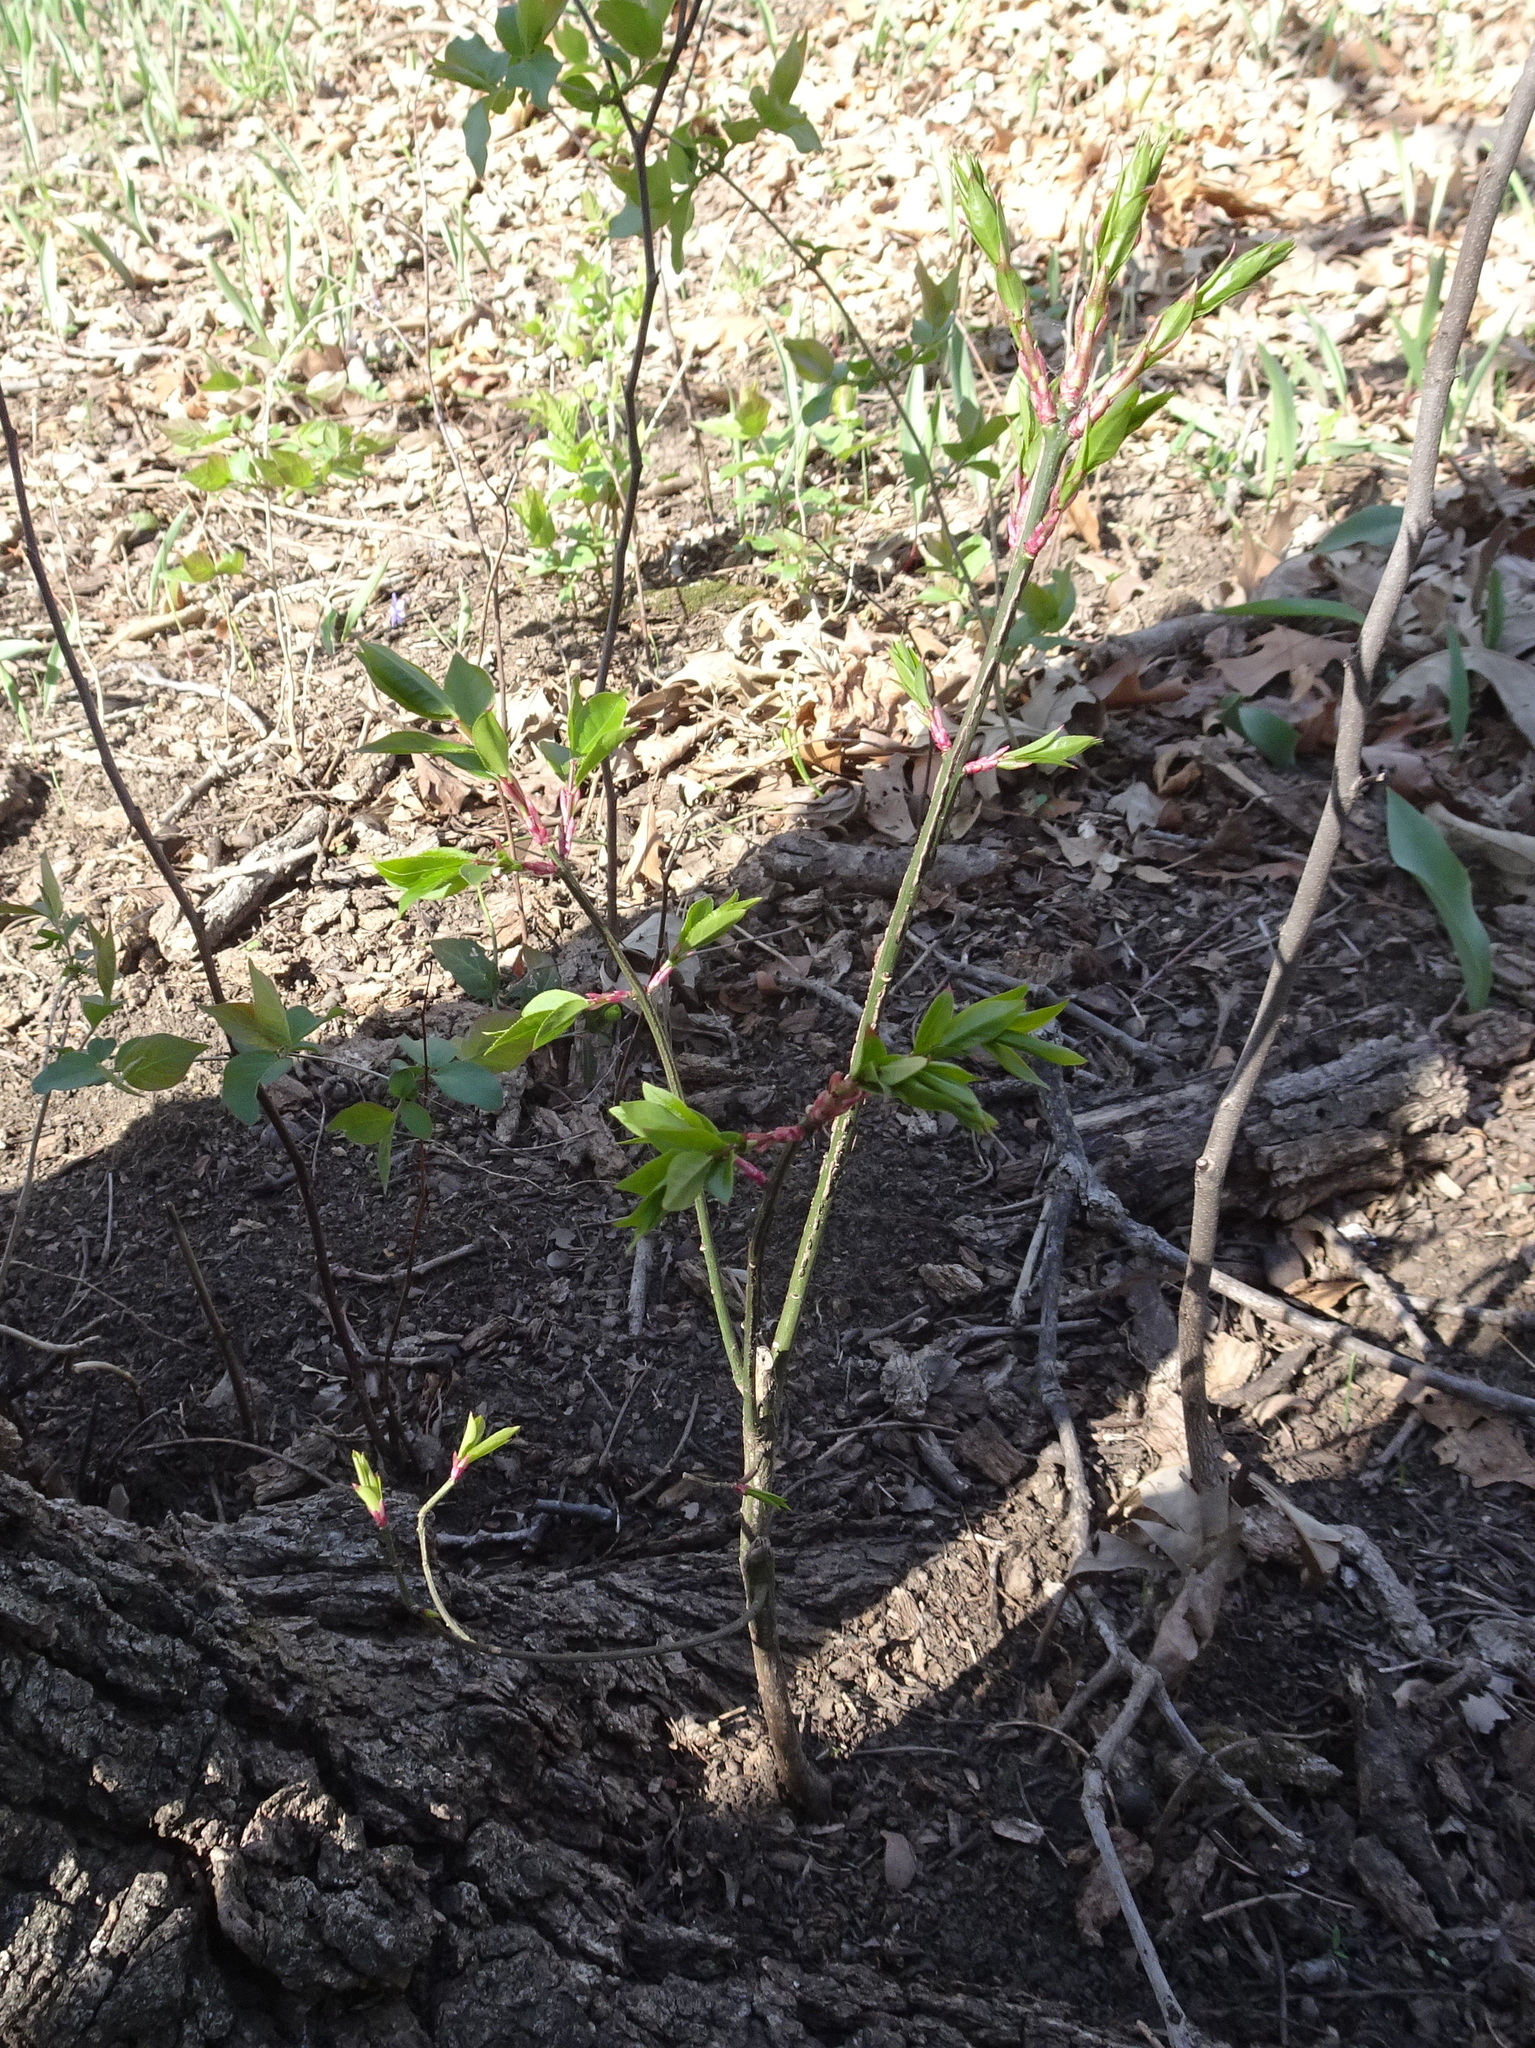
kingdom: Plantae
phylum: Tracheophyta
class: Magnoliopsida
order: Celastrales
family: Celastraceae
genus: Euonymus
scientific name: Euonymus alatus
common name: Winged euonymus
